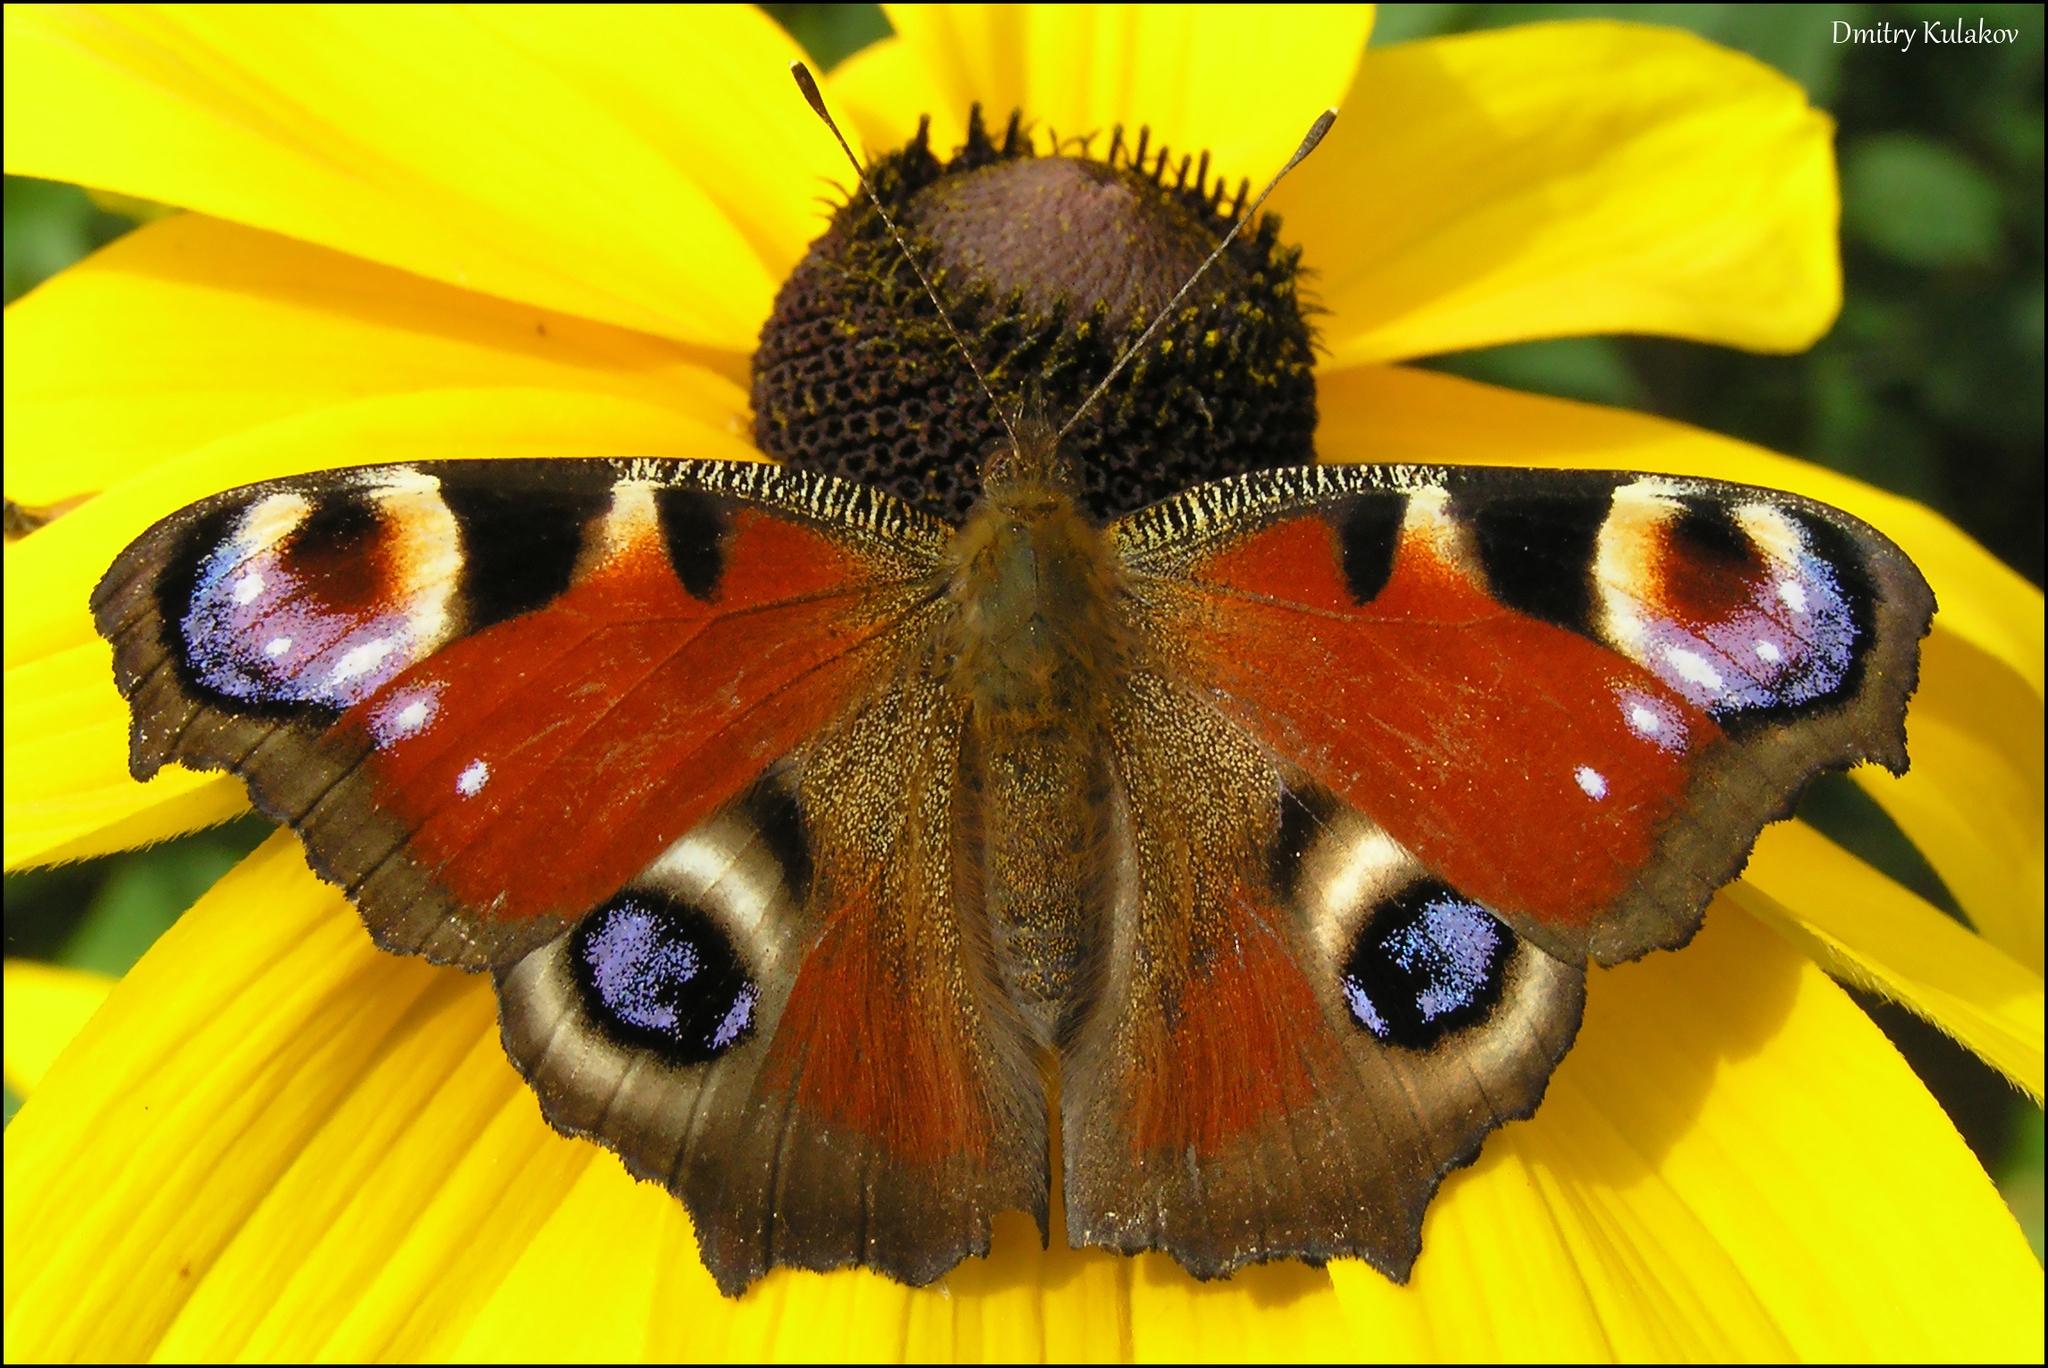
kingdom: Animalia
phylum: Arthropoda
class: Insecta
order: Lepidoptera
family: Nymphalidae
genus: Aglais
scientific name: Aglais io
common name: Peacock
